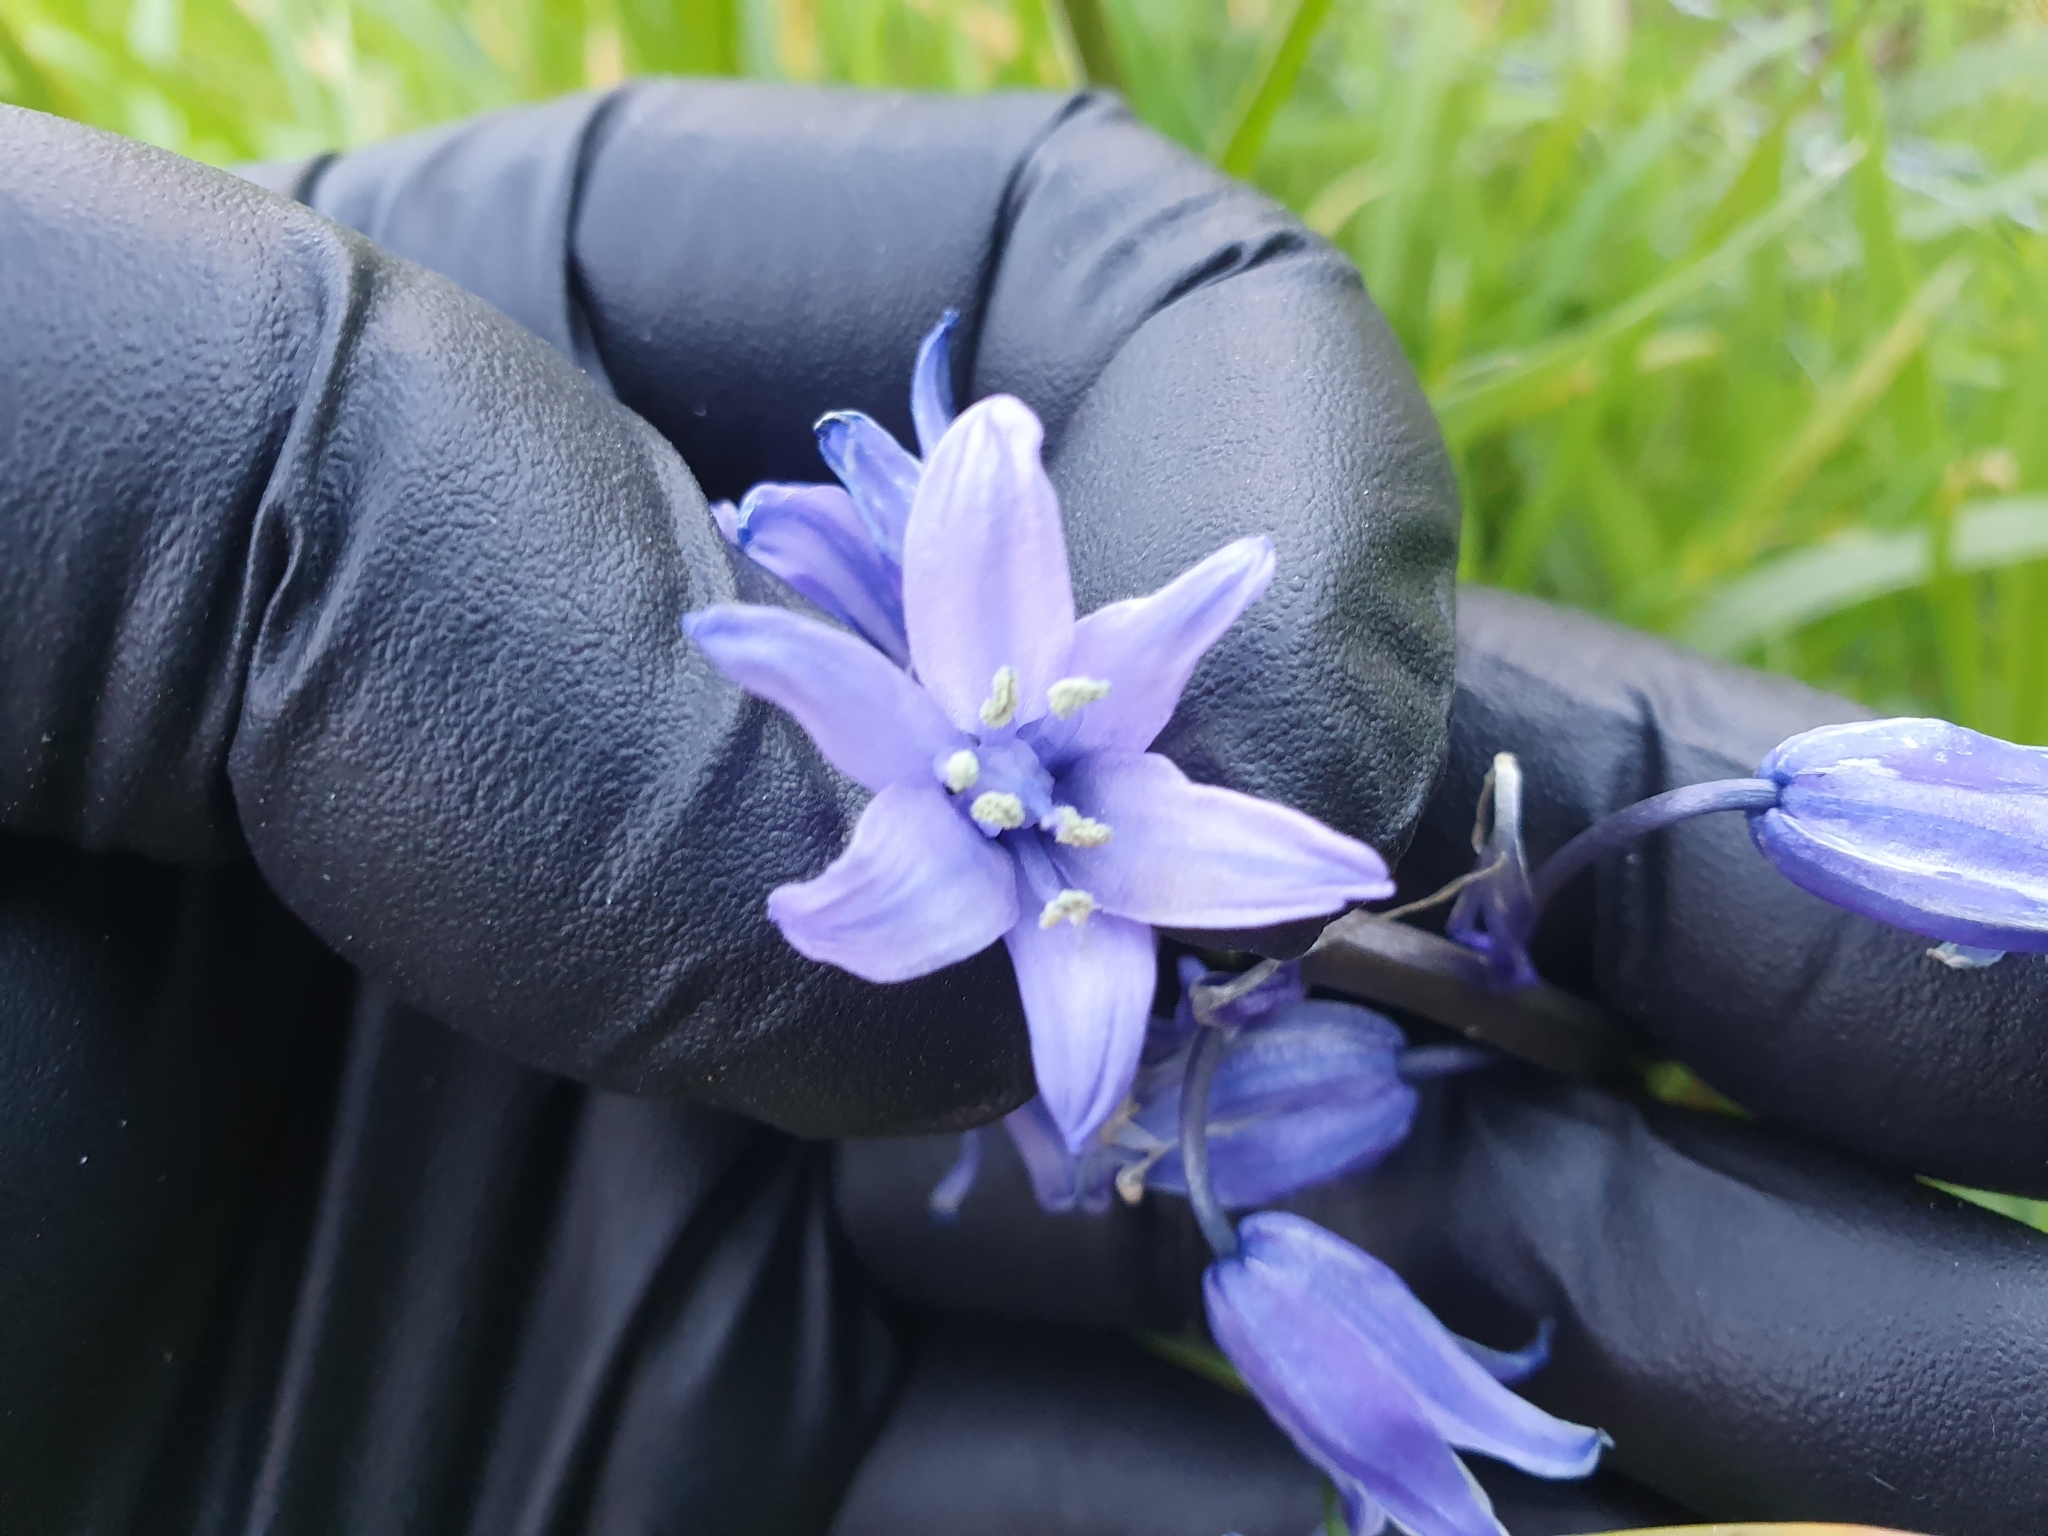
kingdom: Plantae
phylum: Tracheophyta
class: Liliopsida
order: Asparagales
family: Asparagaceae
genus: Hyacinthoides
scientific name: Hyacinthoides massartiana
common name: Hyacinthoides
